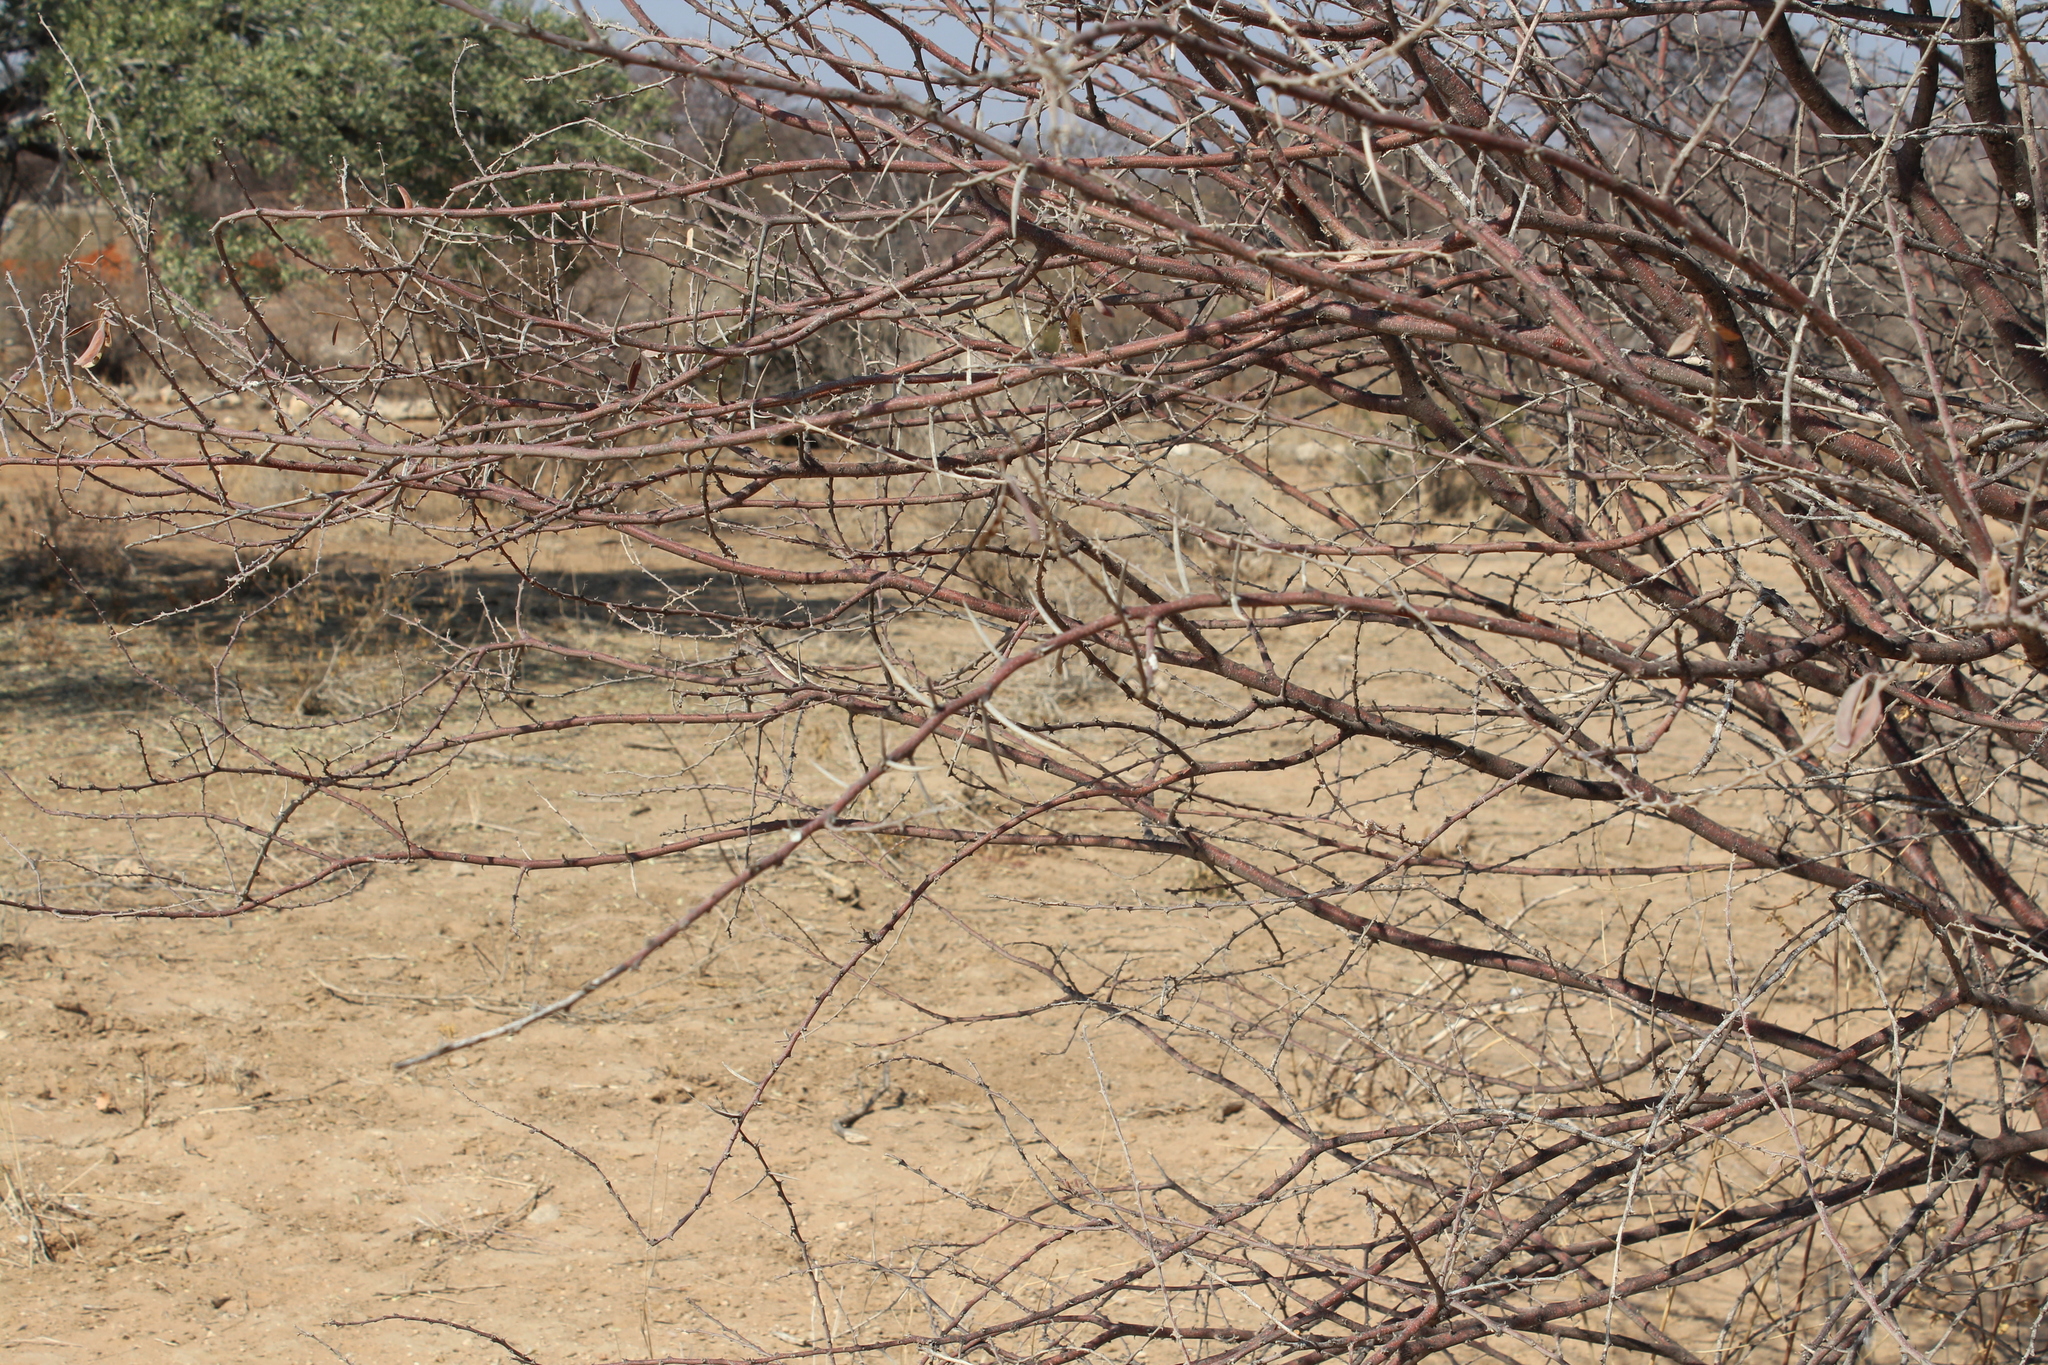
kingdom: Plantae
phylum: Tracheophyta
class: Magnoliopsida
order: Fabales
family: Fabaceae
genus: Vachellia
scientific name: Vachellia reficiens
